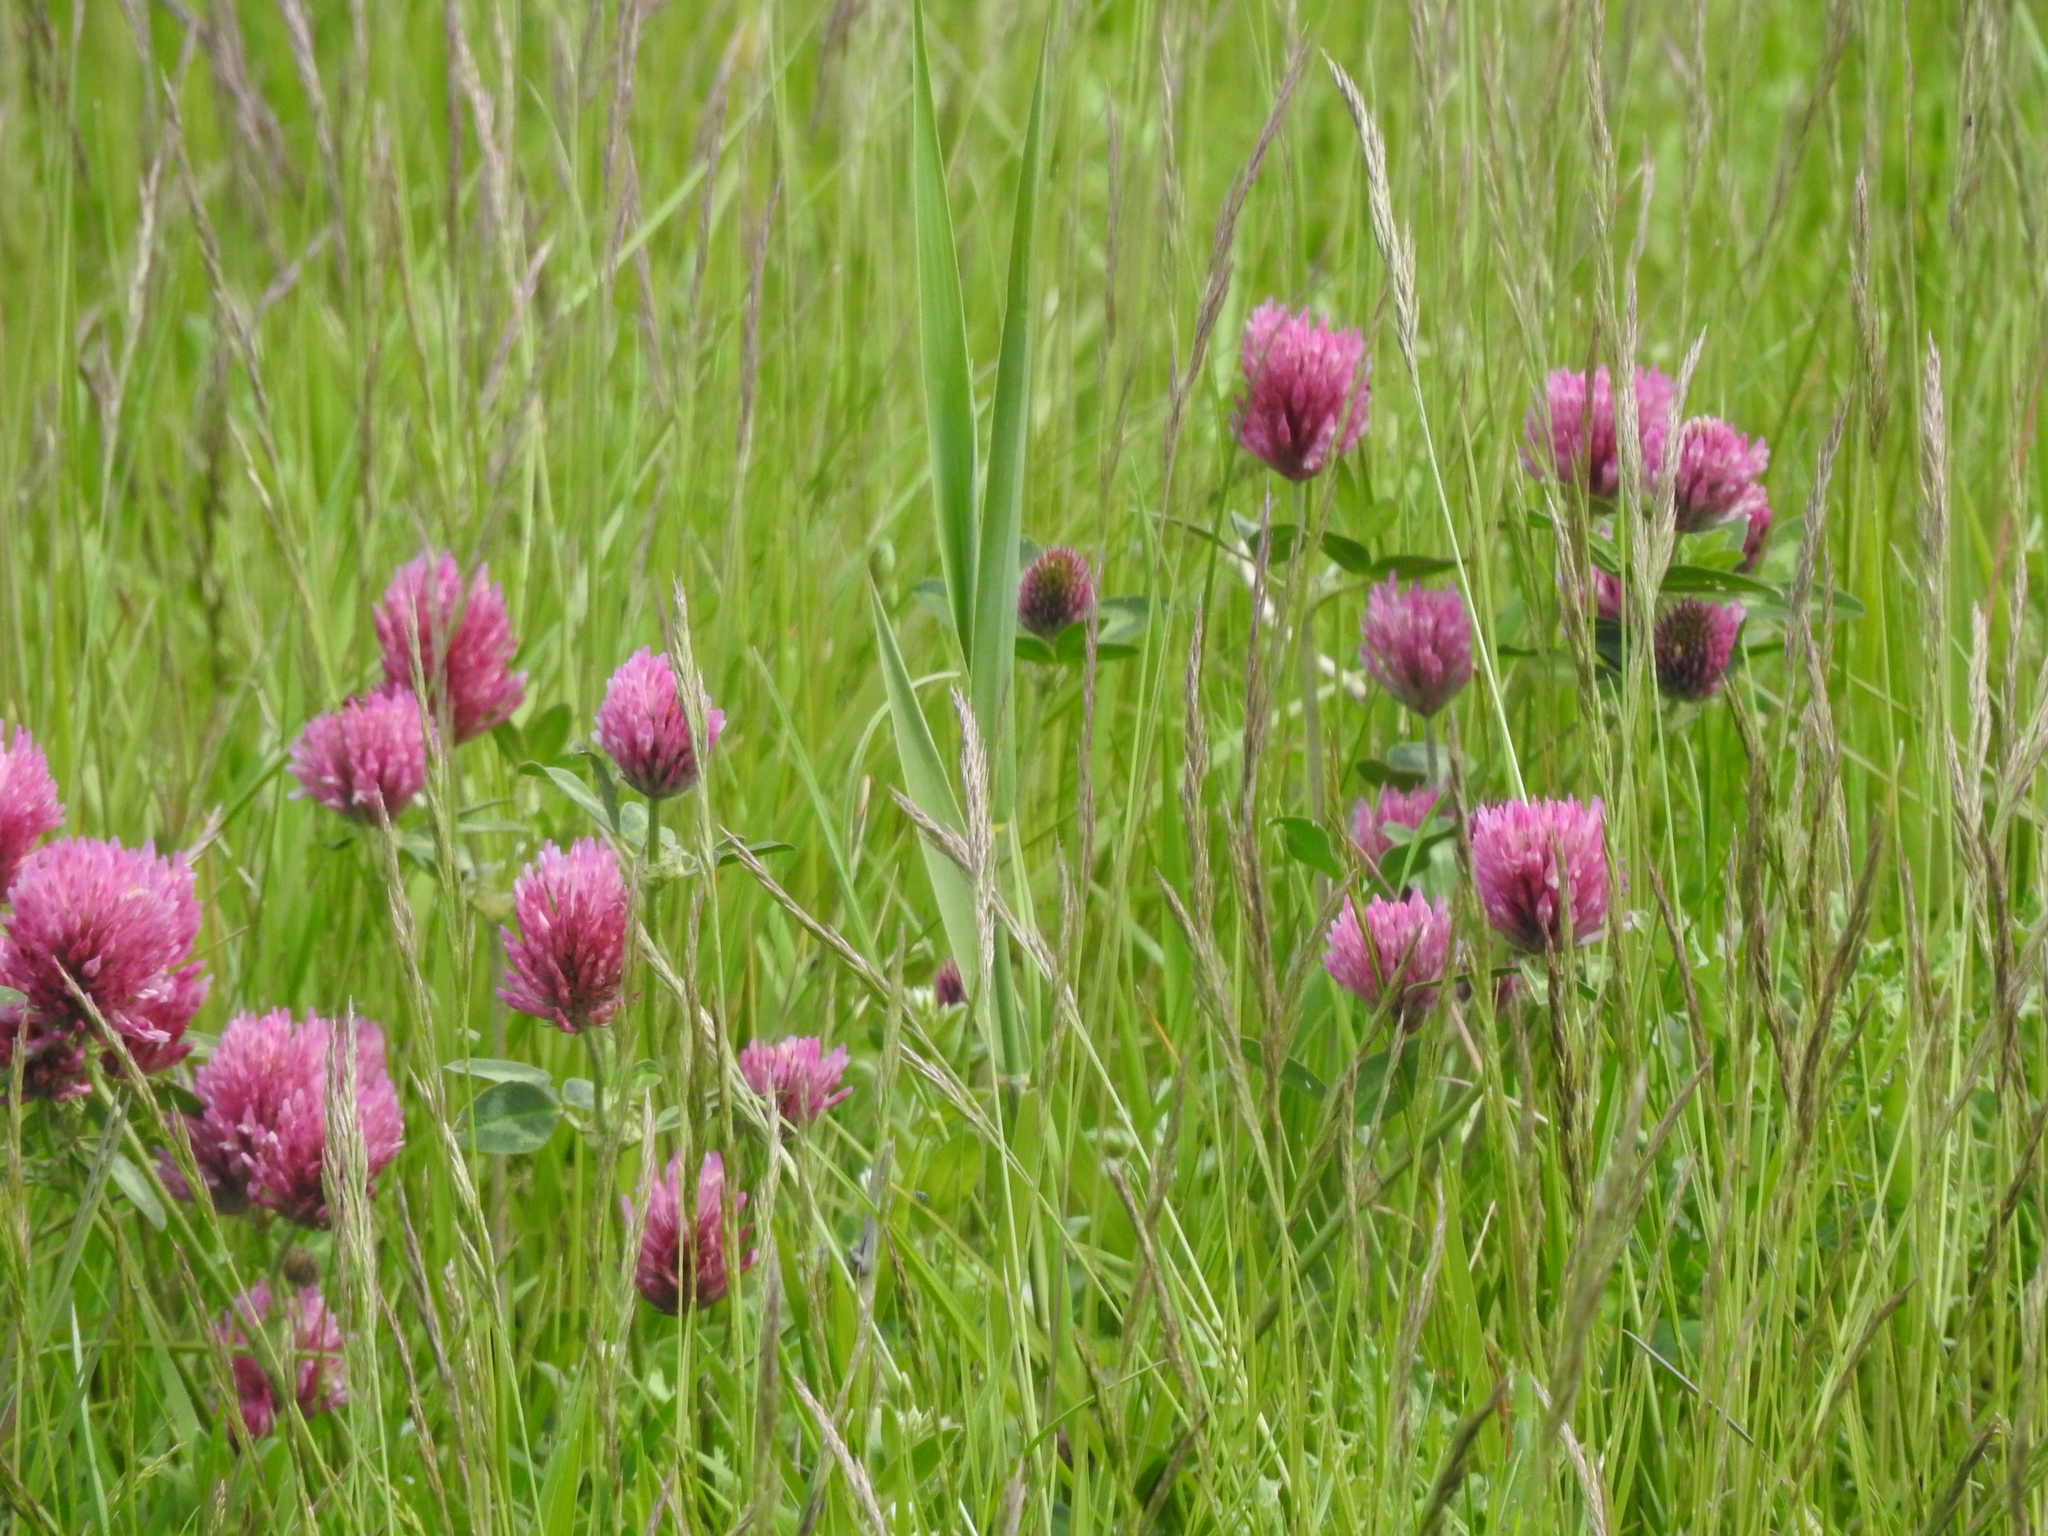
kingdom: Plantae
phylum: Tracheophyta
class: Magnoliopsida
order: Fabales
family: Fabaceae
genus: Trifolium
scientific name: Trifolium pratense
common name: Red clover
